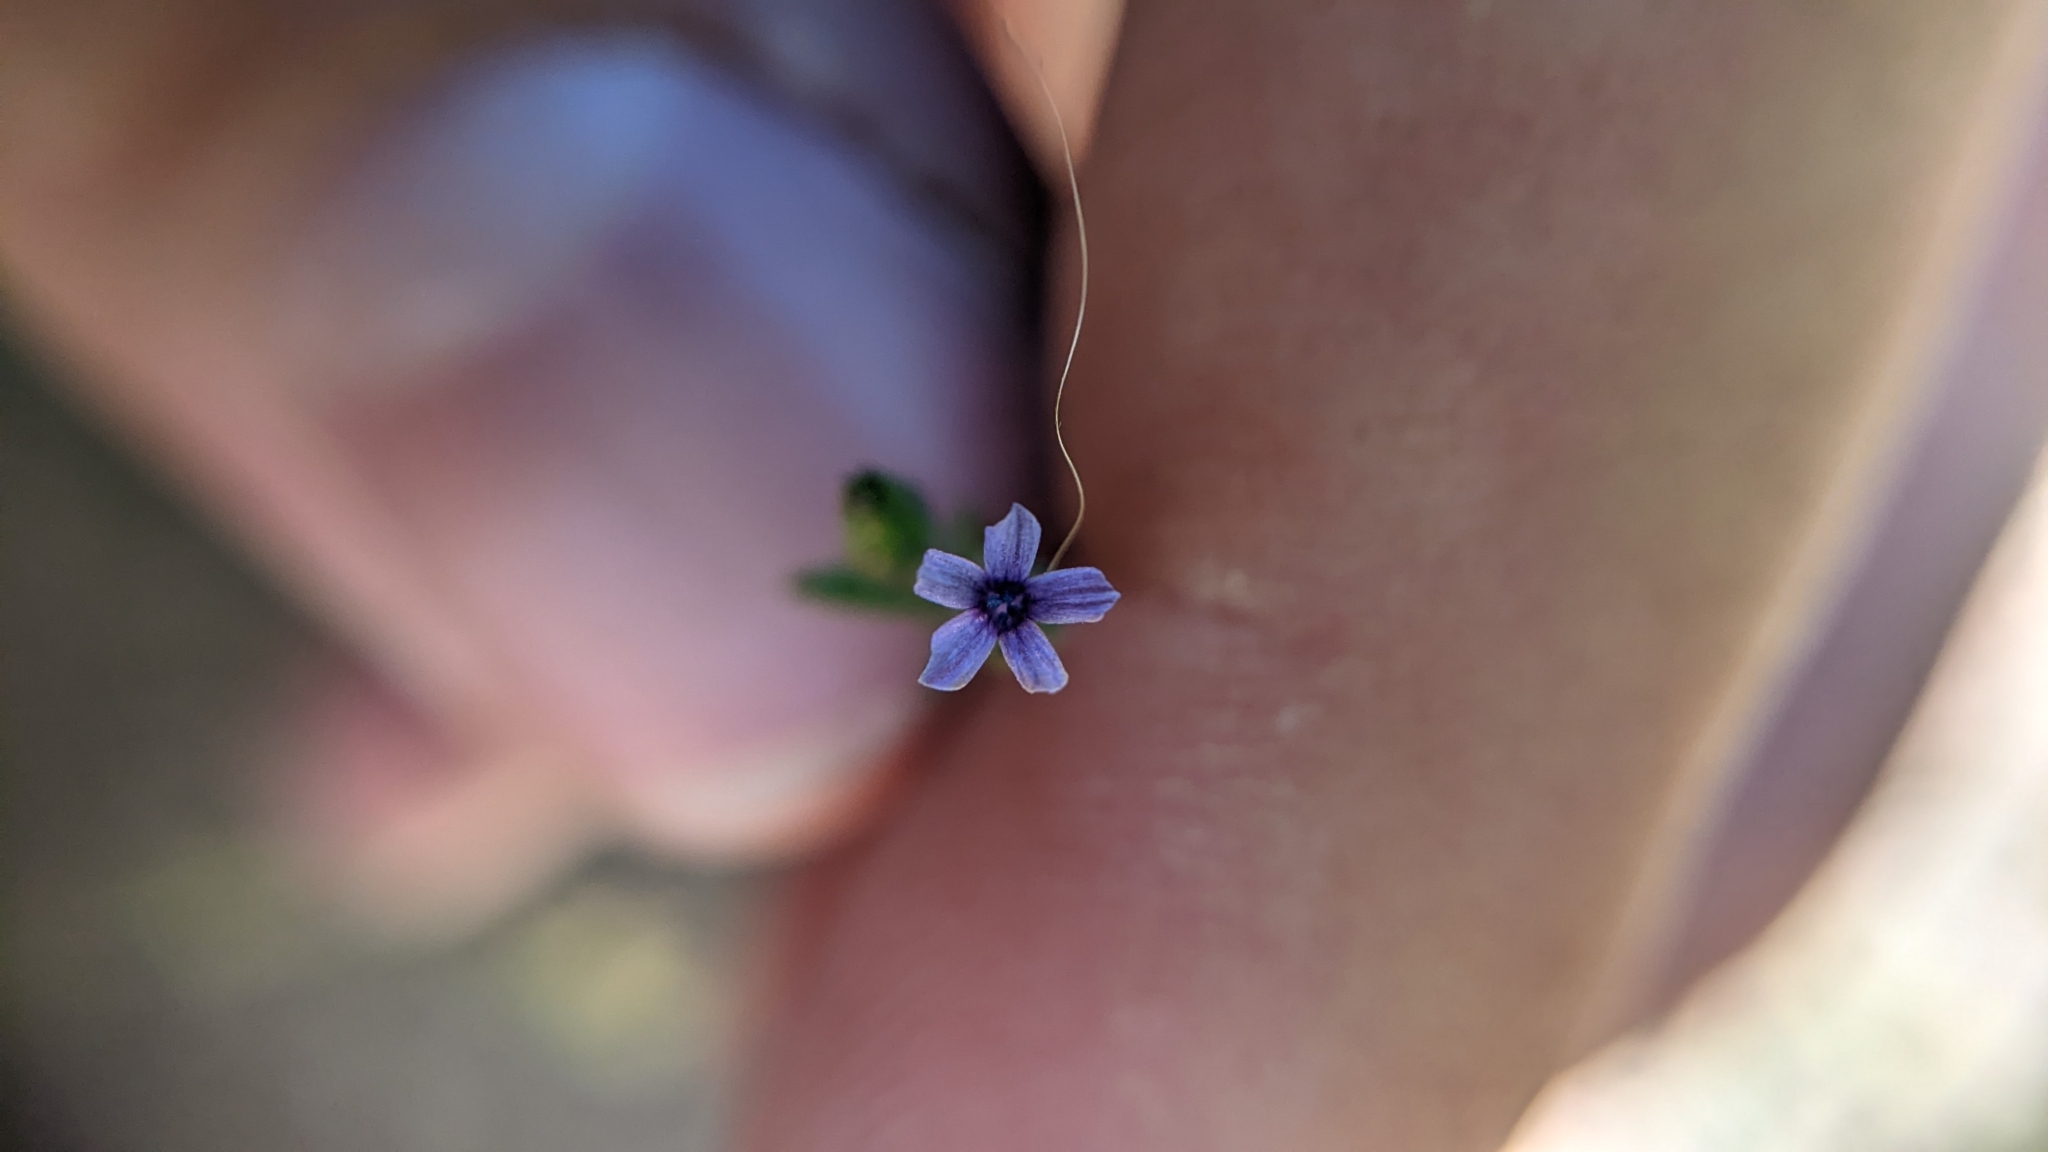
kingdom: Plantae
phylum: Tracheophyta
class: Magnoliopsida
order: Ericales
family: Polemoniaceae
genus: Allophyllum
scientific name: Allophyllum gilioides
